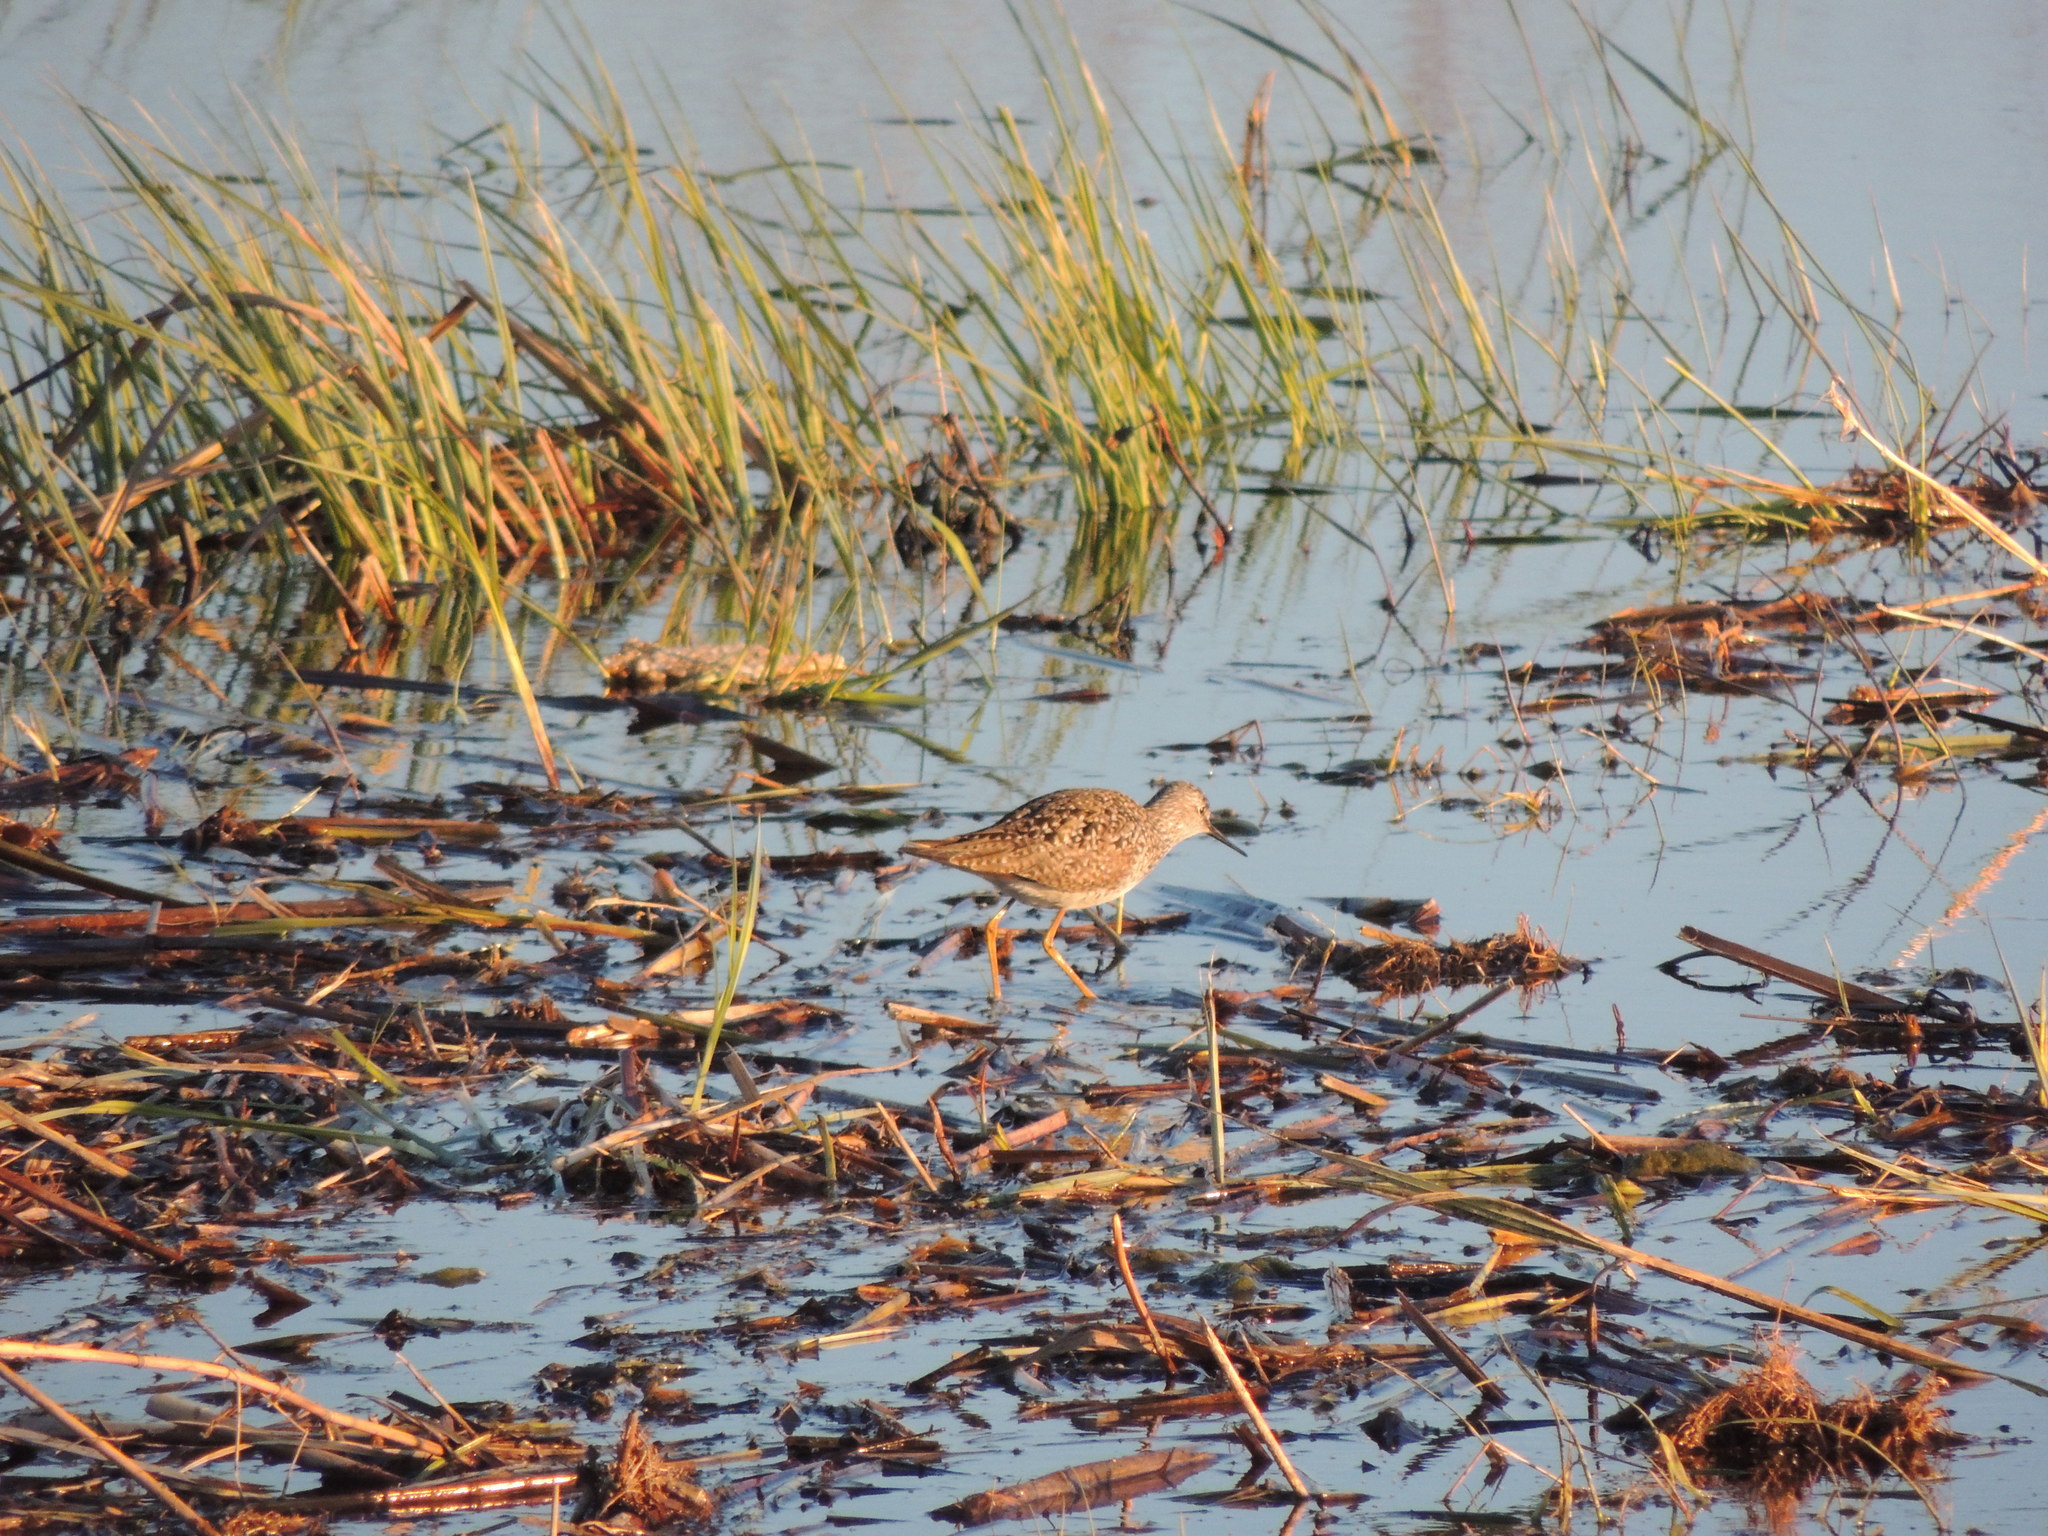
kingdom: Animalia
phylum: Chordata
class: Aves
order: Charadriiformes
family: Scolopacidae
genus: Tringa
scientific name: Tringa flavipes
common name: Lesser yellowlegs
